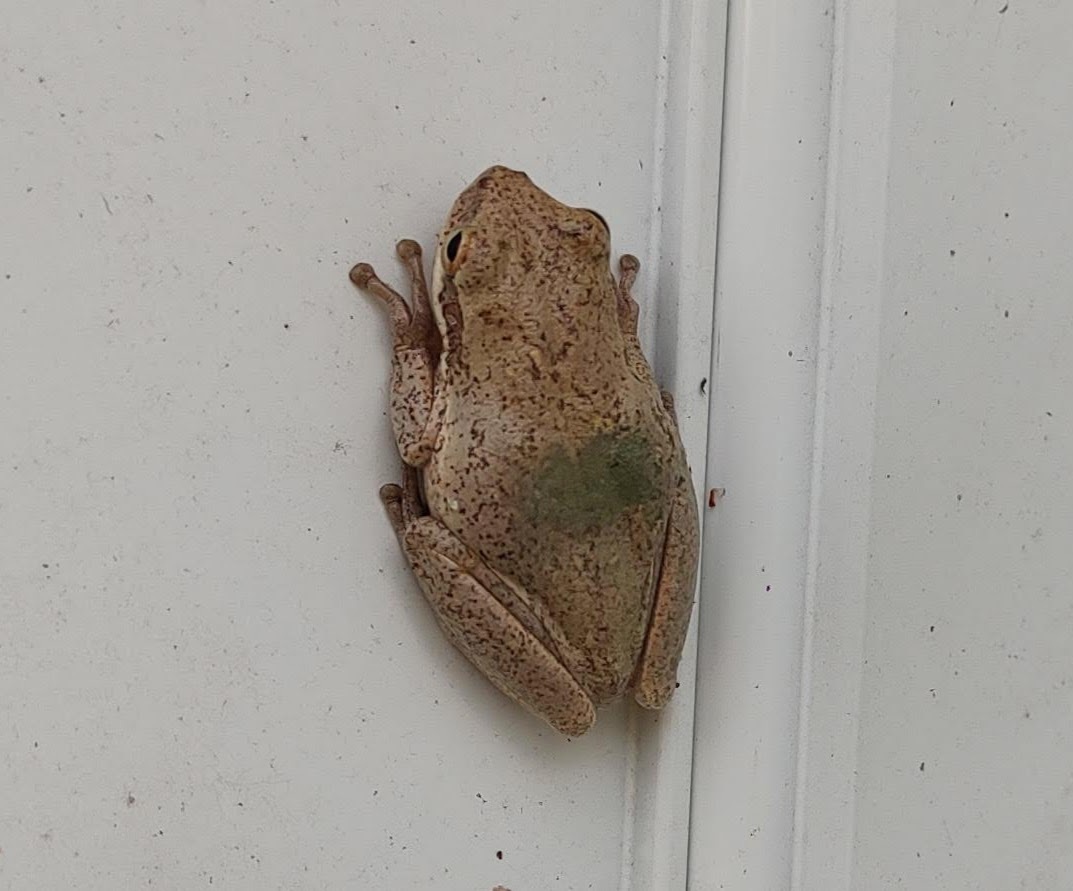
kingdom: Animalia
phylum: Chordata
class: Amphibia
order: Anura
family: Hylidae
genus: Dryophytes
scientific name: Dryophytes squirellus
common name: Squirrel treefrog
